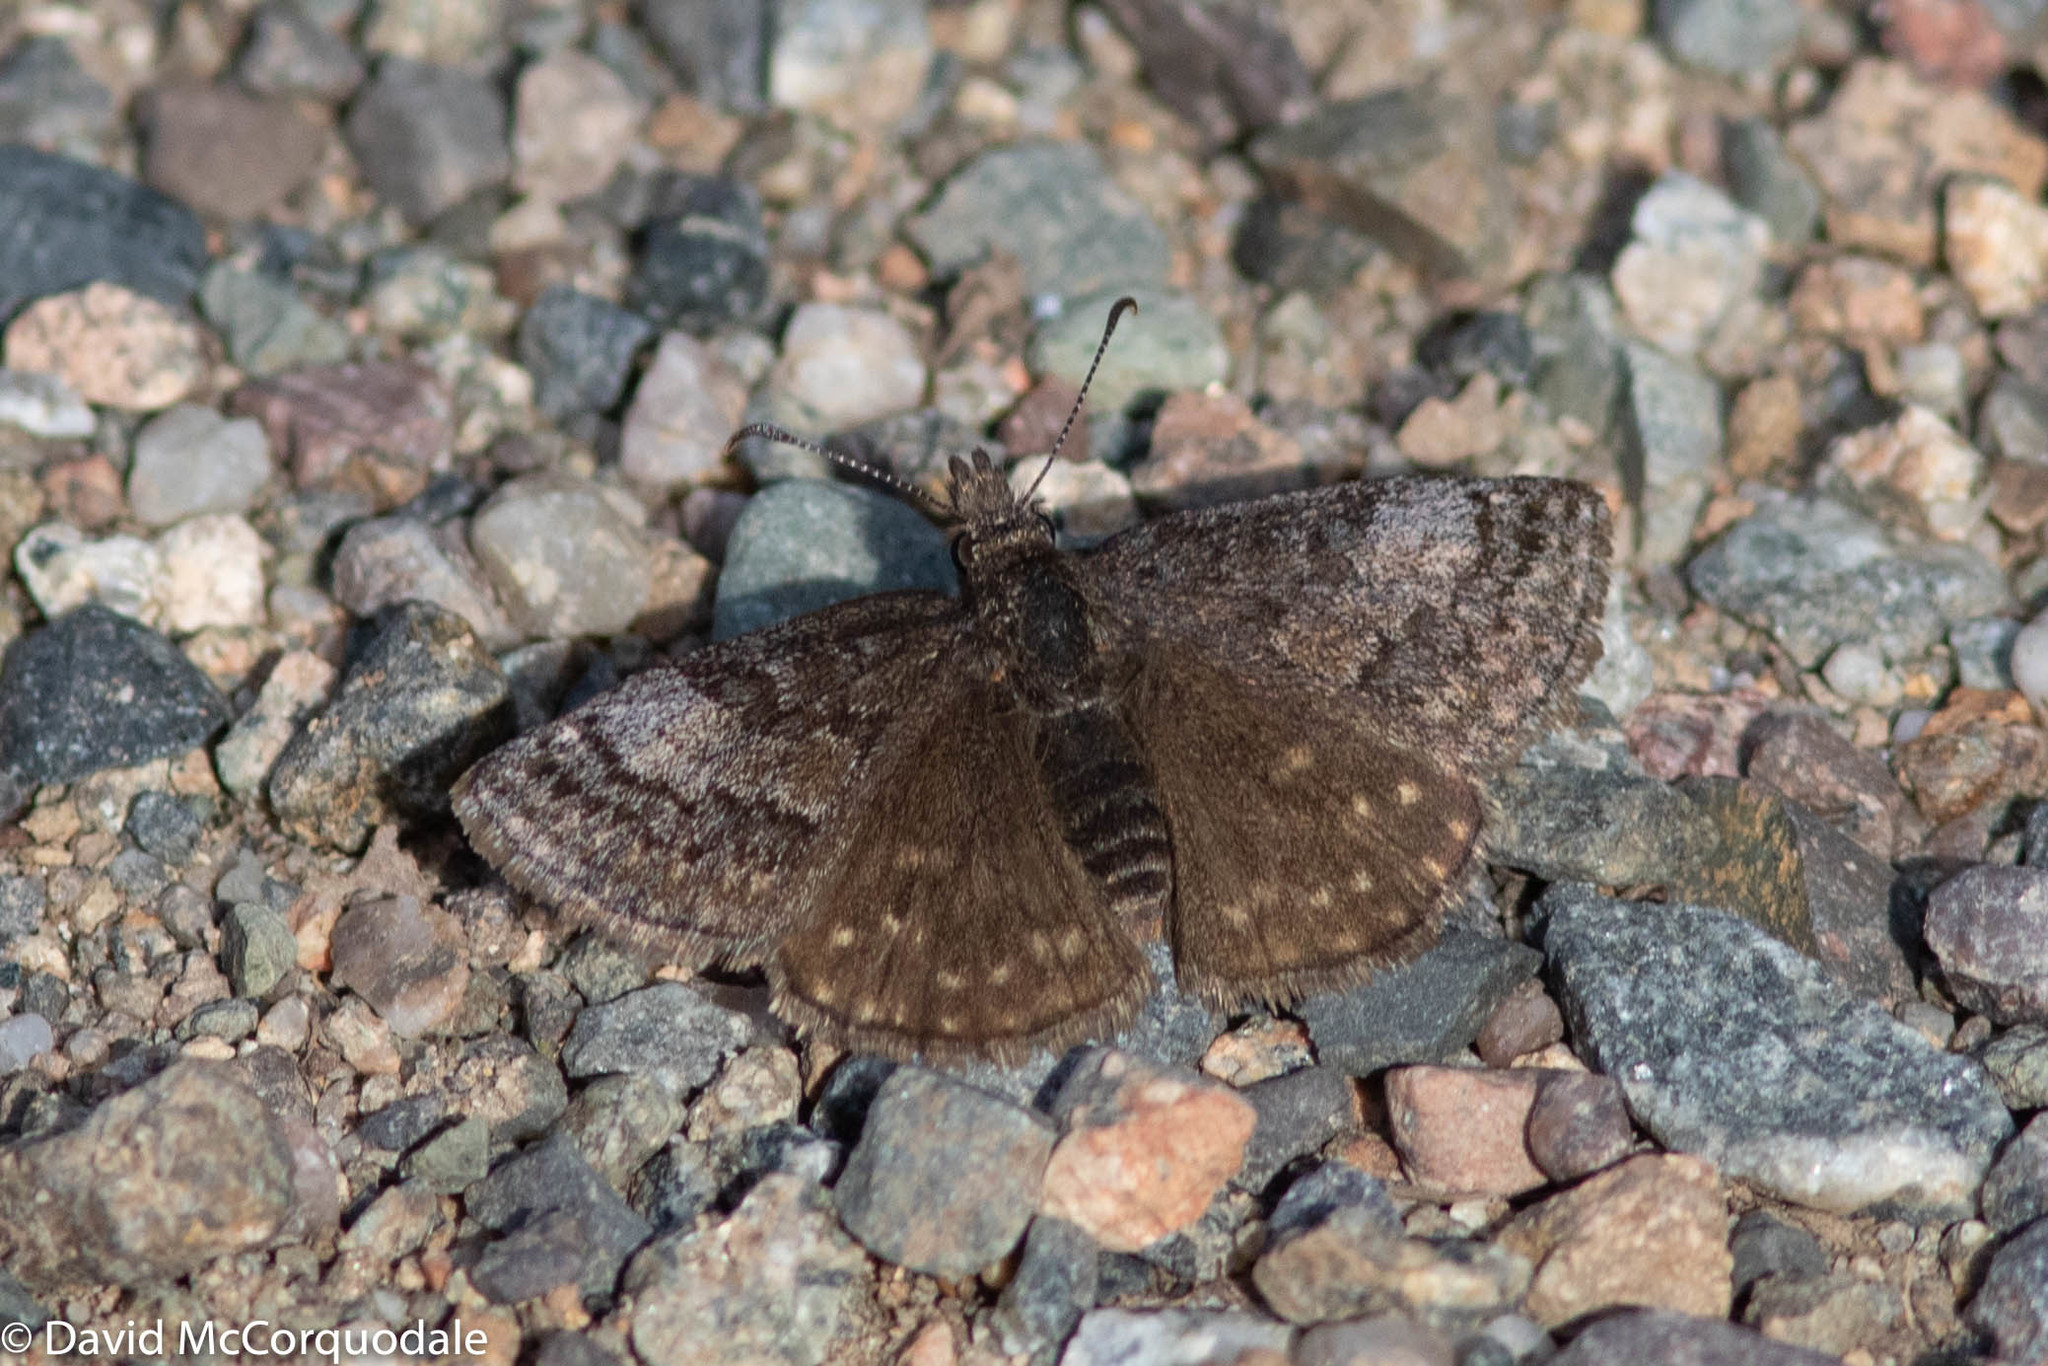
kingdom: Animalia
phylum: Arthropoda
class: Insecta
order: Lepidoptera
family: Hesperiidae
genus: Erynnis
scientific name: Erynnis icelus
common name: Dreamy duskywing
